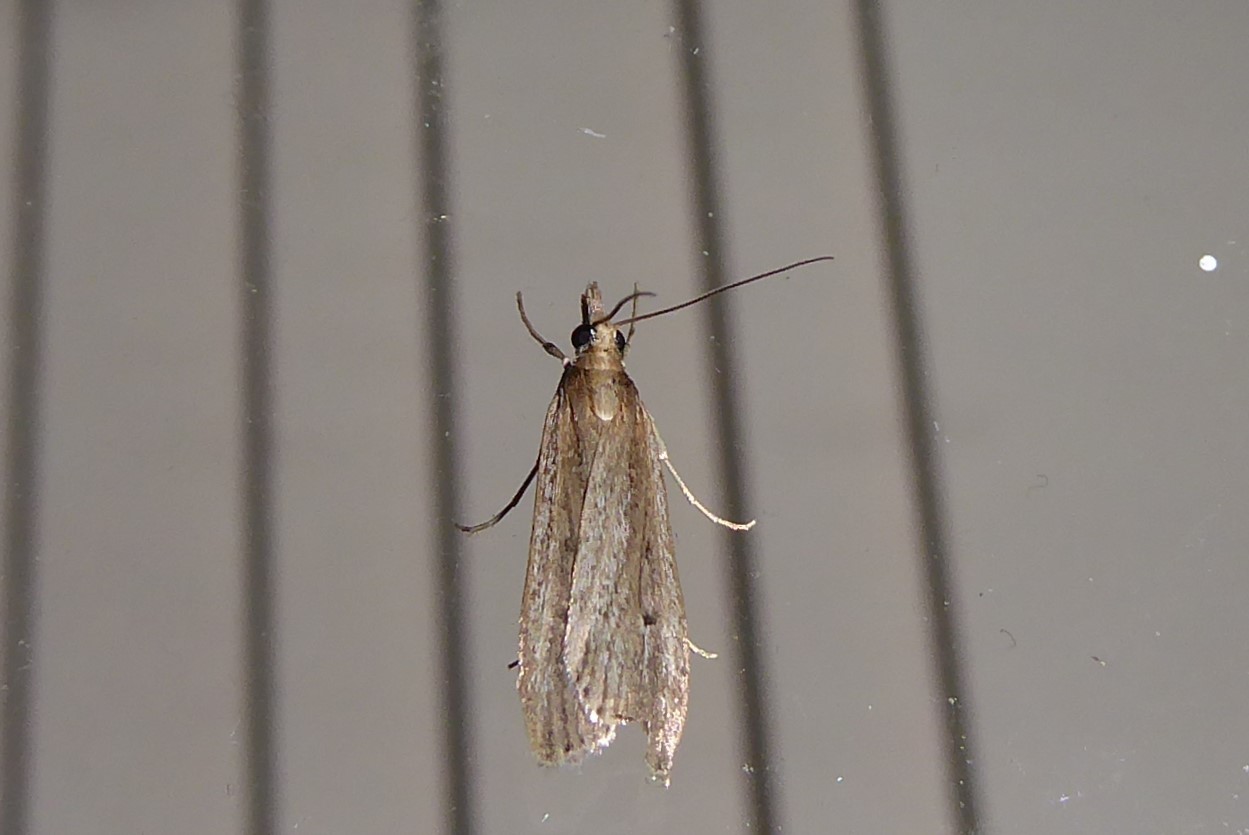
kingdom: Animalia
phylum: Arthropoda
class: Insecta
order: Lepidoptera
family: Crambidae
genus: Eudonia
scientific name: Eudonia sabulosella
